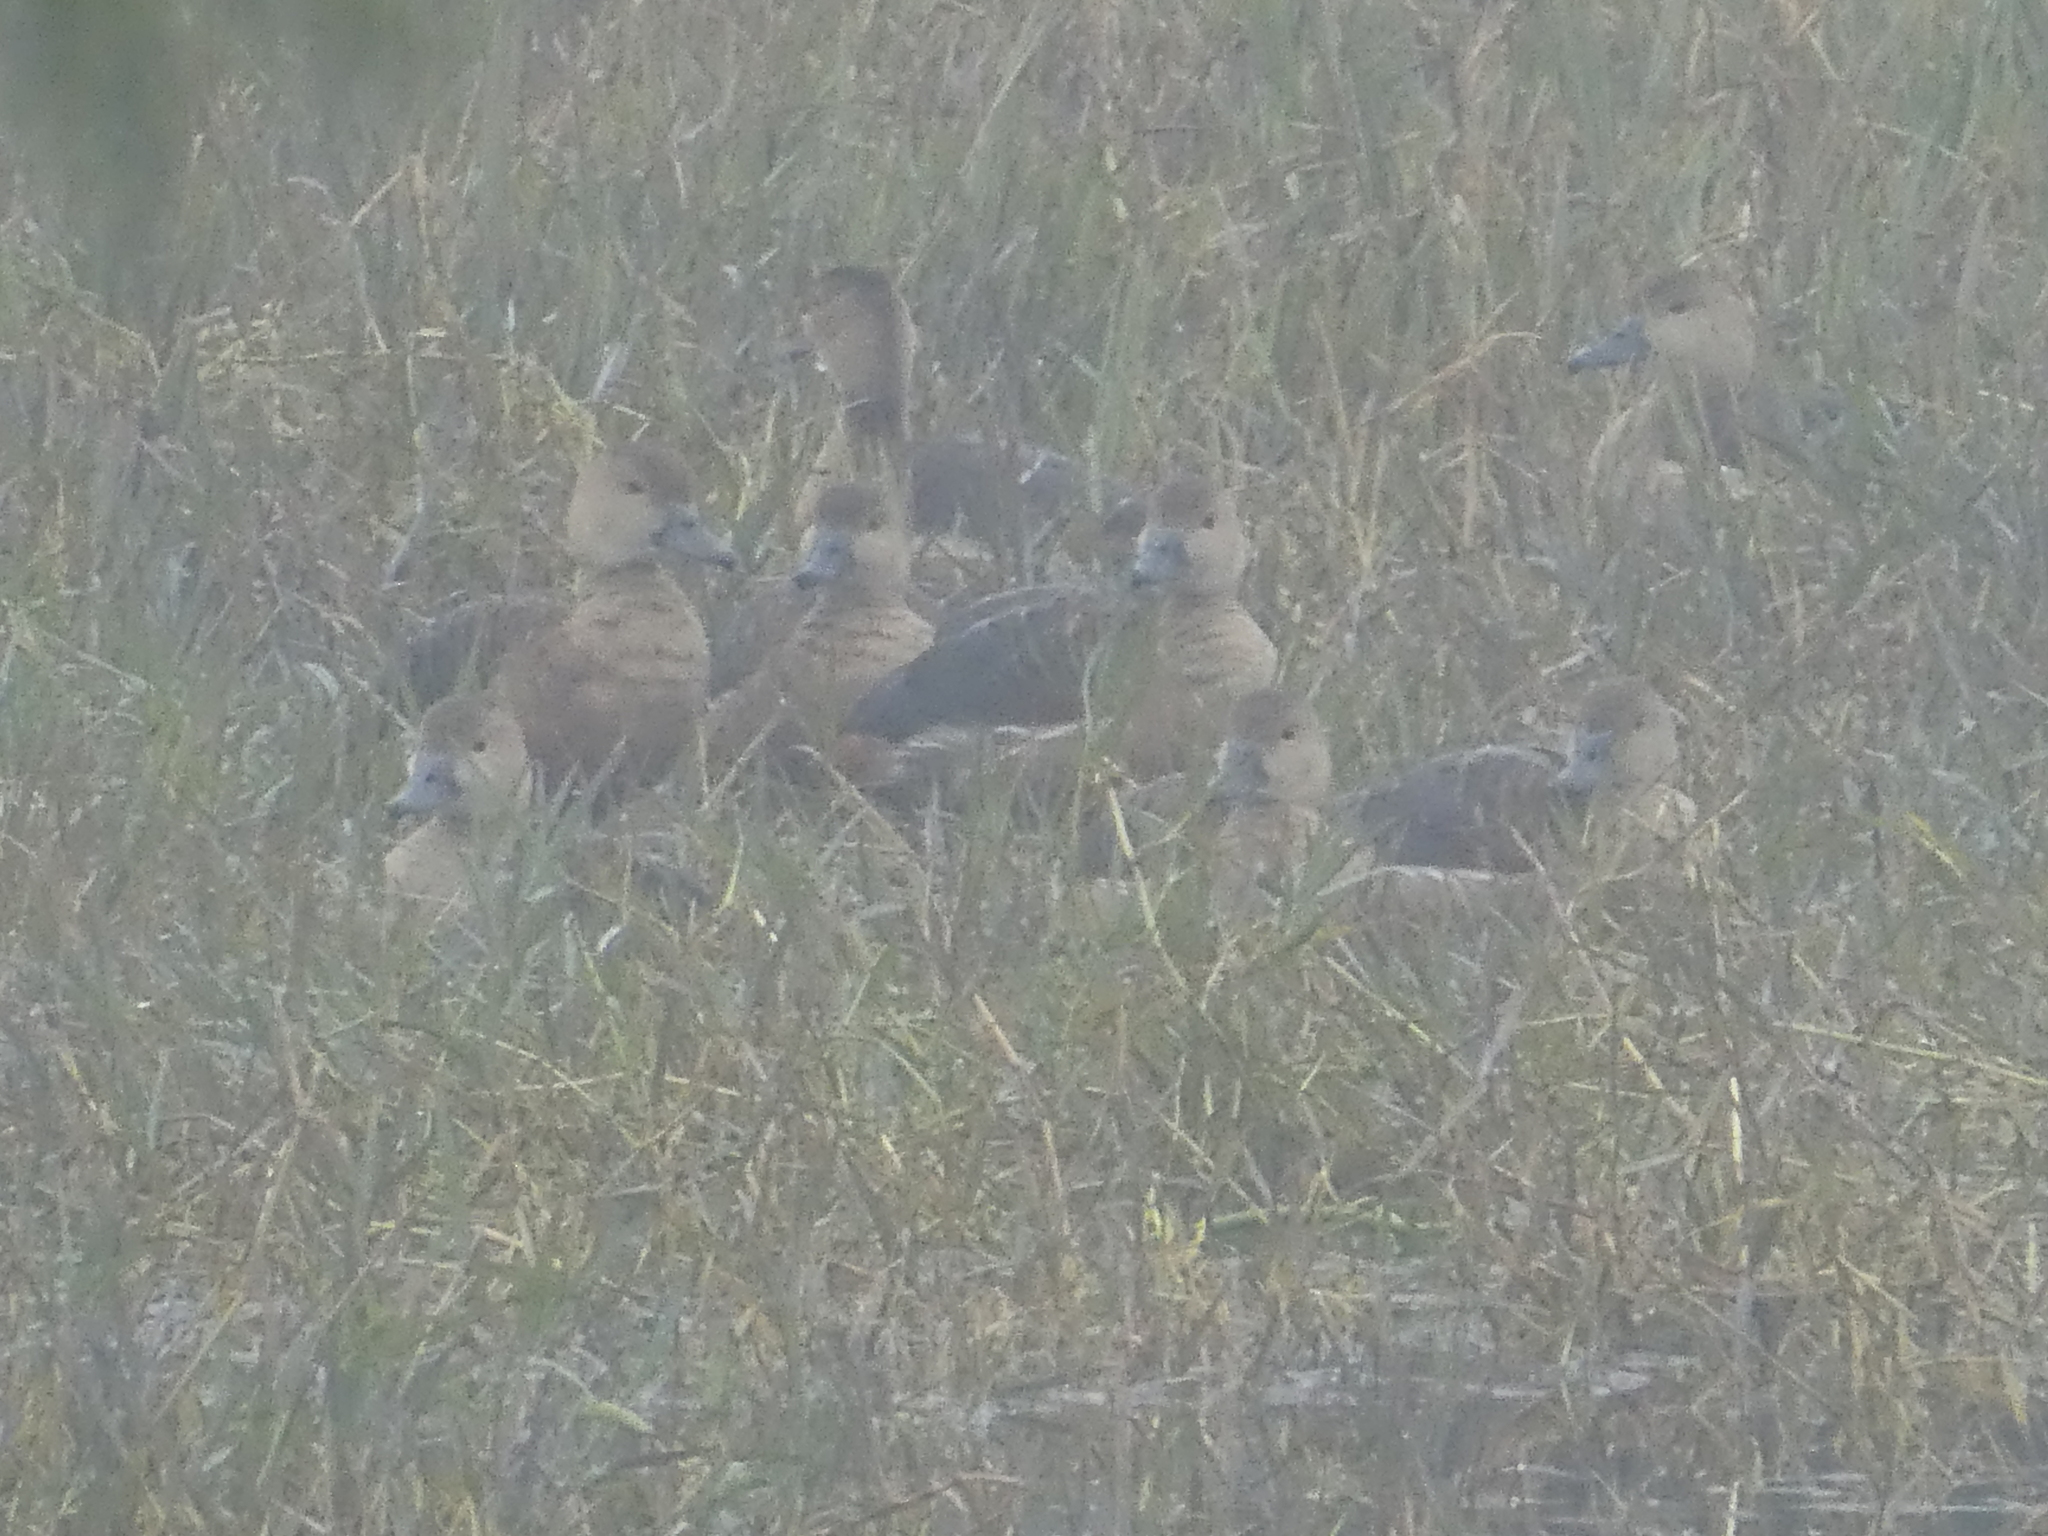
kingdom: Animalia
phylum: Chordata
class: Aves
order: Anseriformes
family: Anatidae
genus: Dendrocygna
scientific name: Dendrocygna javanica
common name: Lesser whistling-duck
